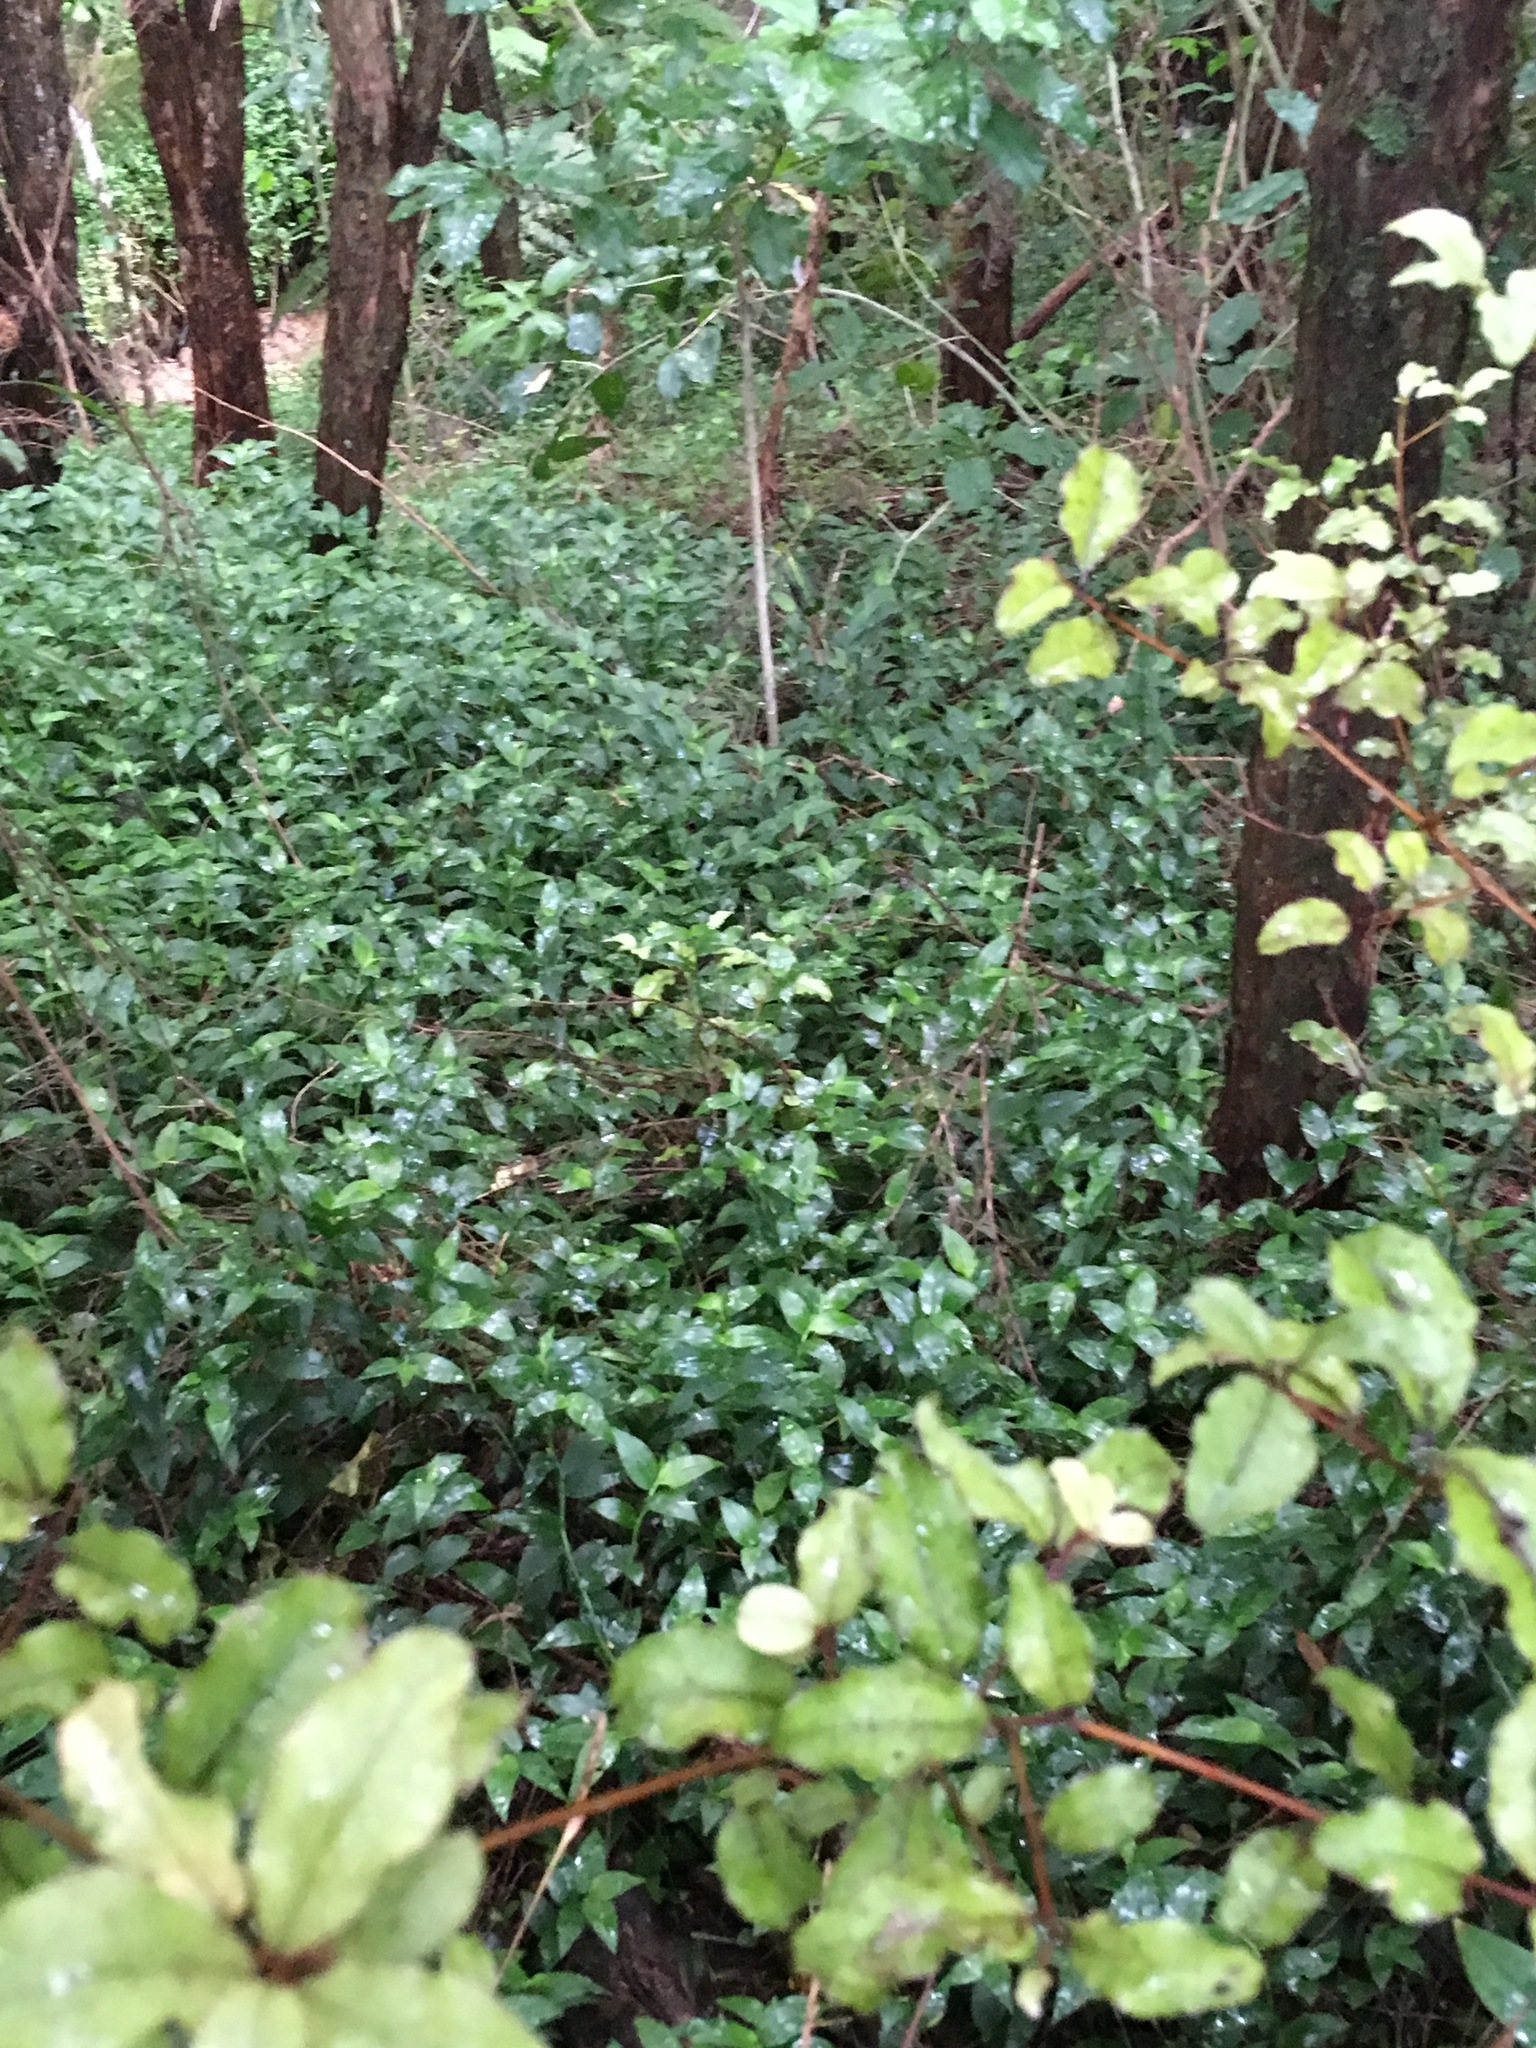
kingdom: Plantae
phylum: Tracheophyta
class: Liliopsida
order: Commelinales
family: Commelinaceae
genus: Tradescantia
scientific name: Tradescantia fluminensis
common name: Wandering-jew
